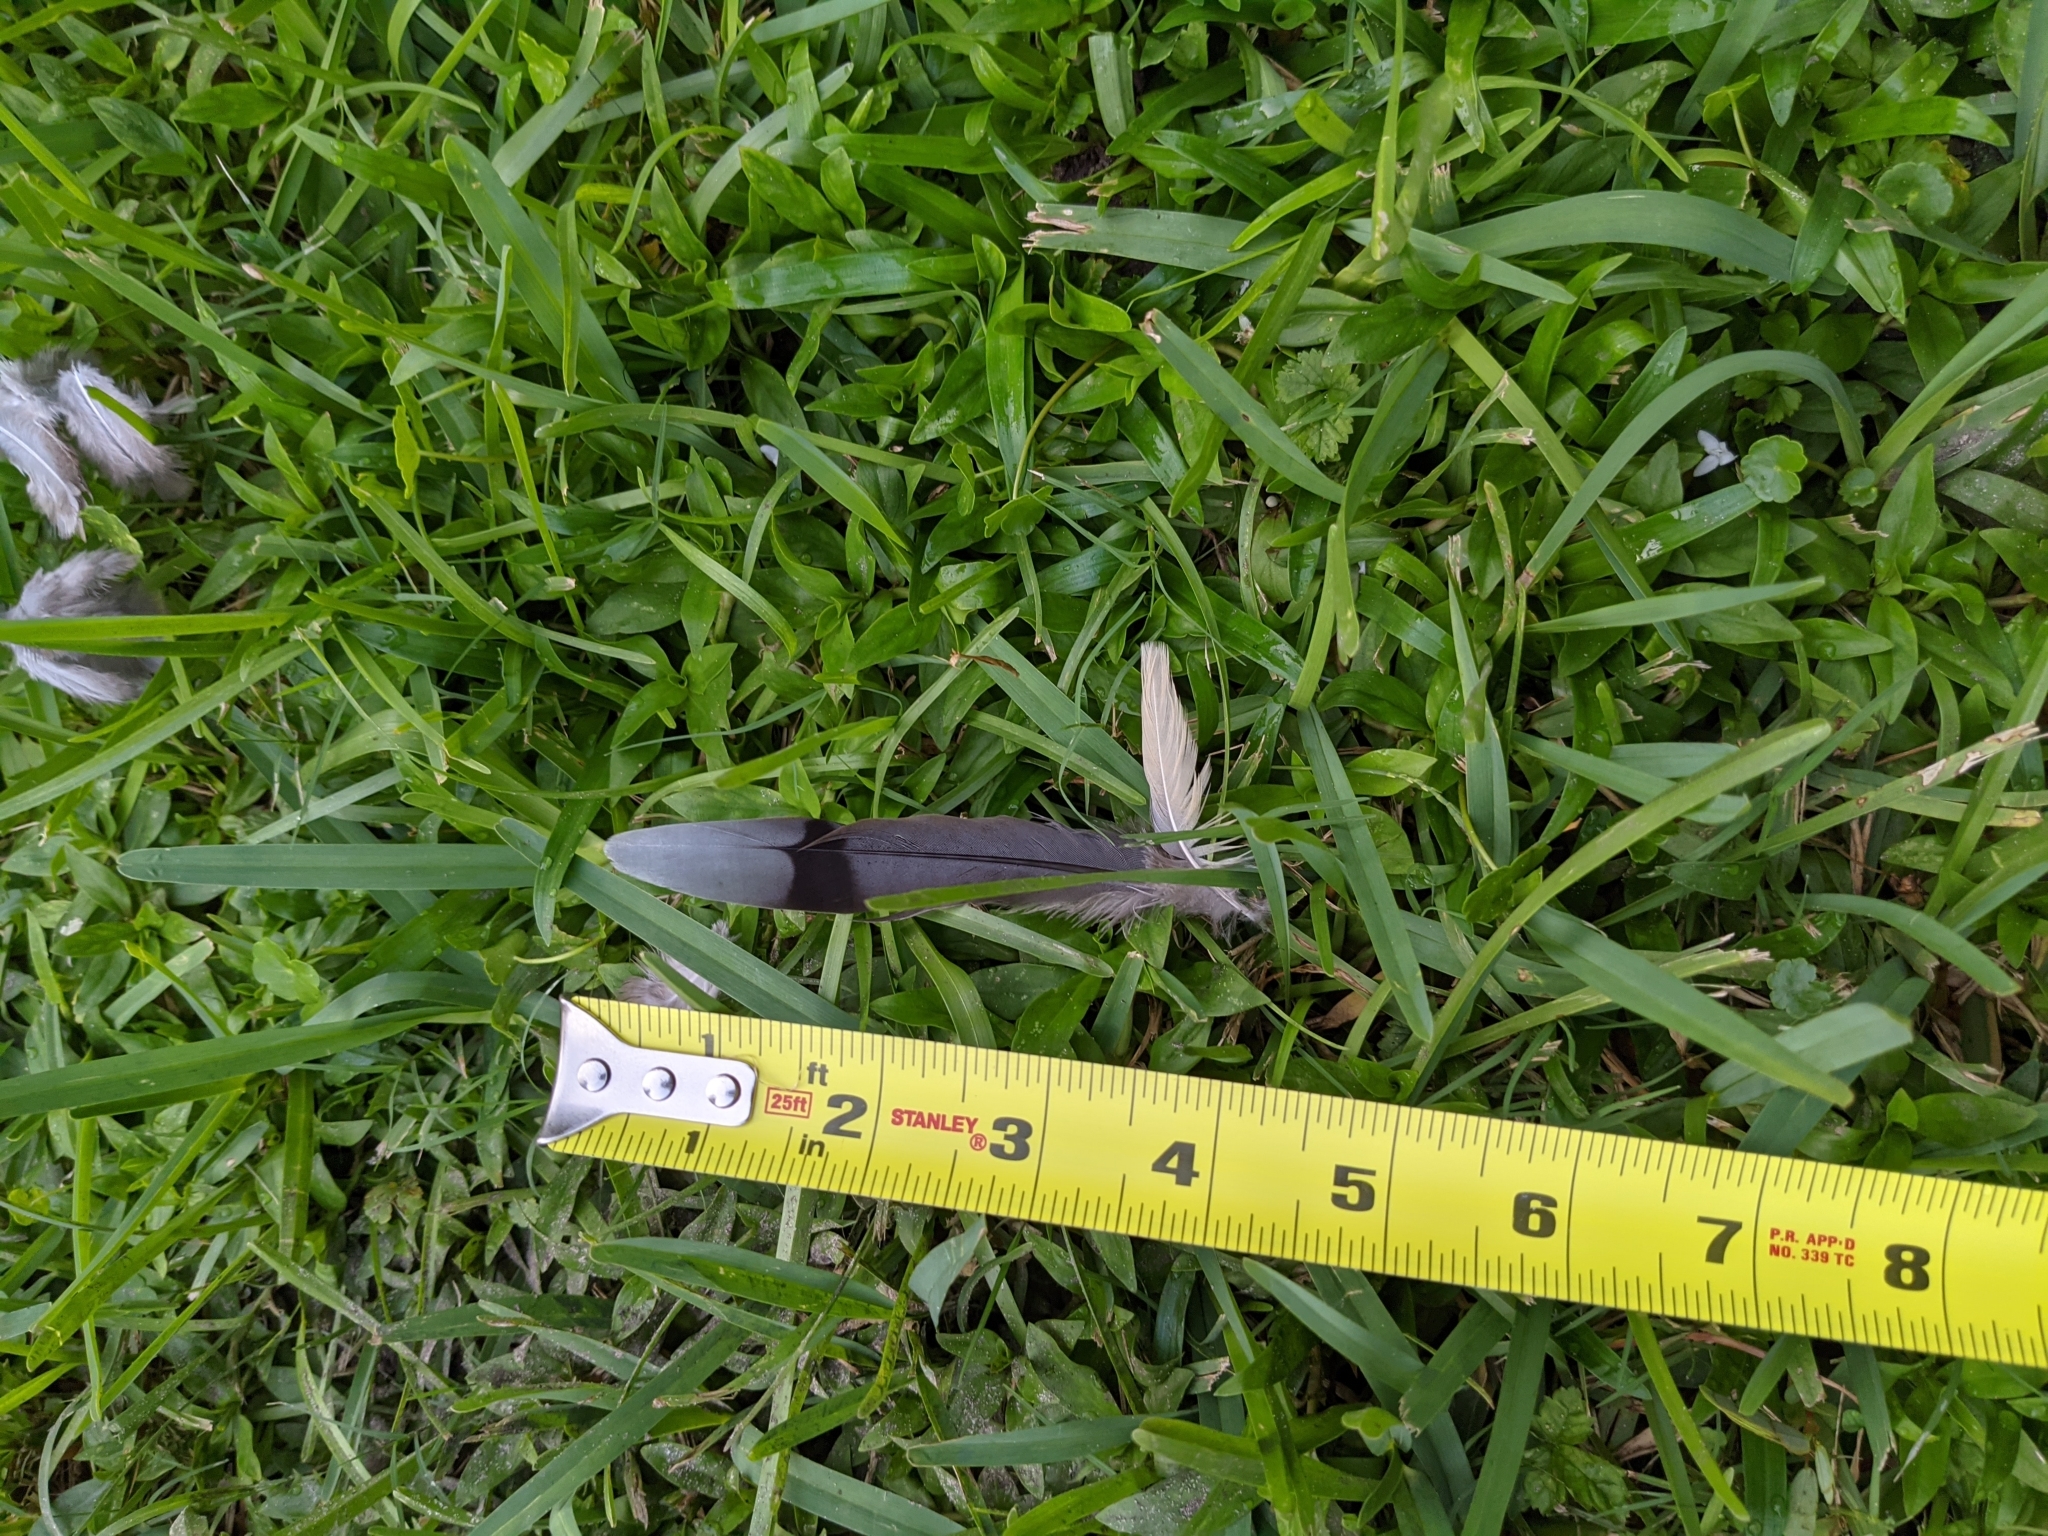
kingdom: Animalia
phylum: Chordata
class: Aves
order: Columbiformes
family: Columbidae
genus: Zenaida
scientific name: Zenaida macroura
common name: Mourning dove
